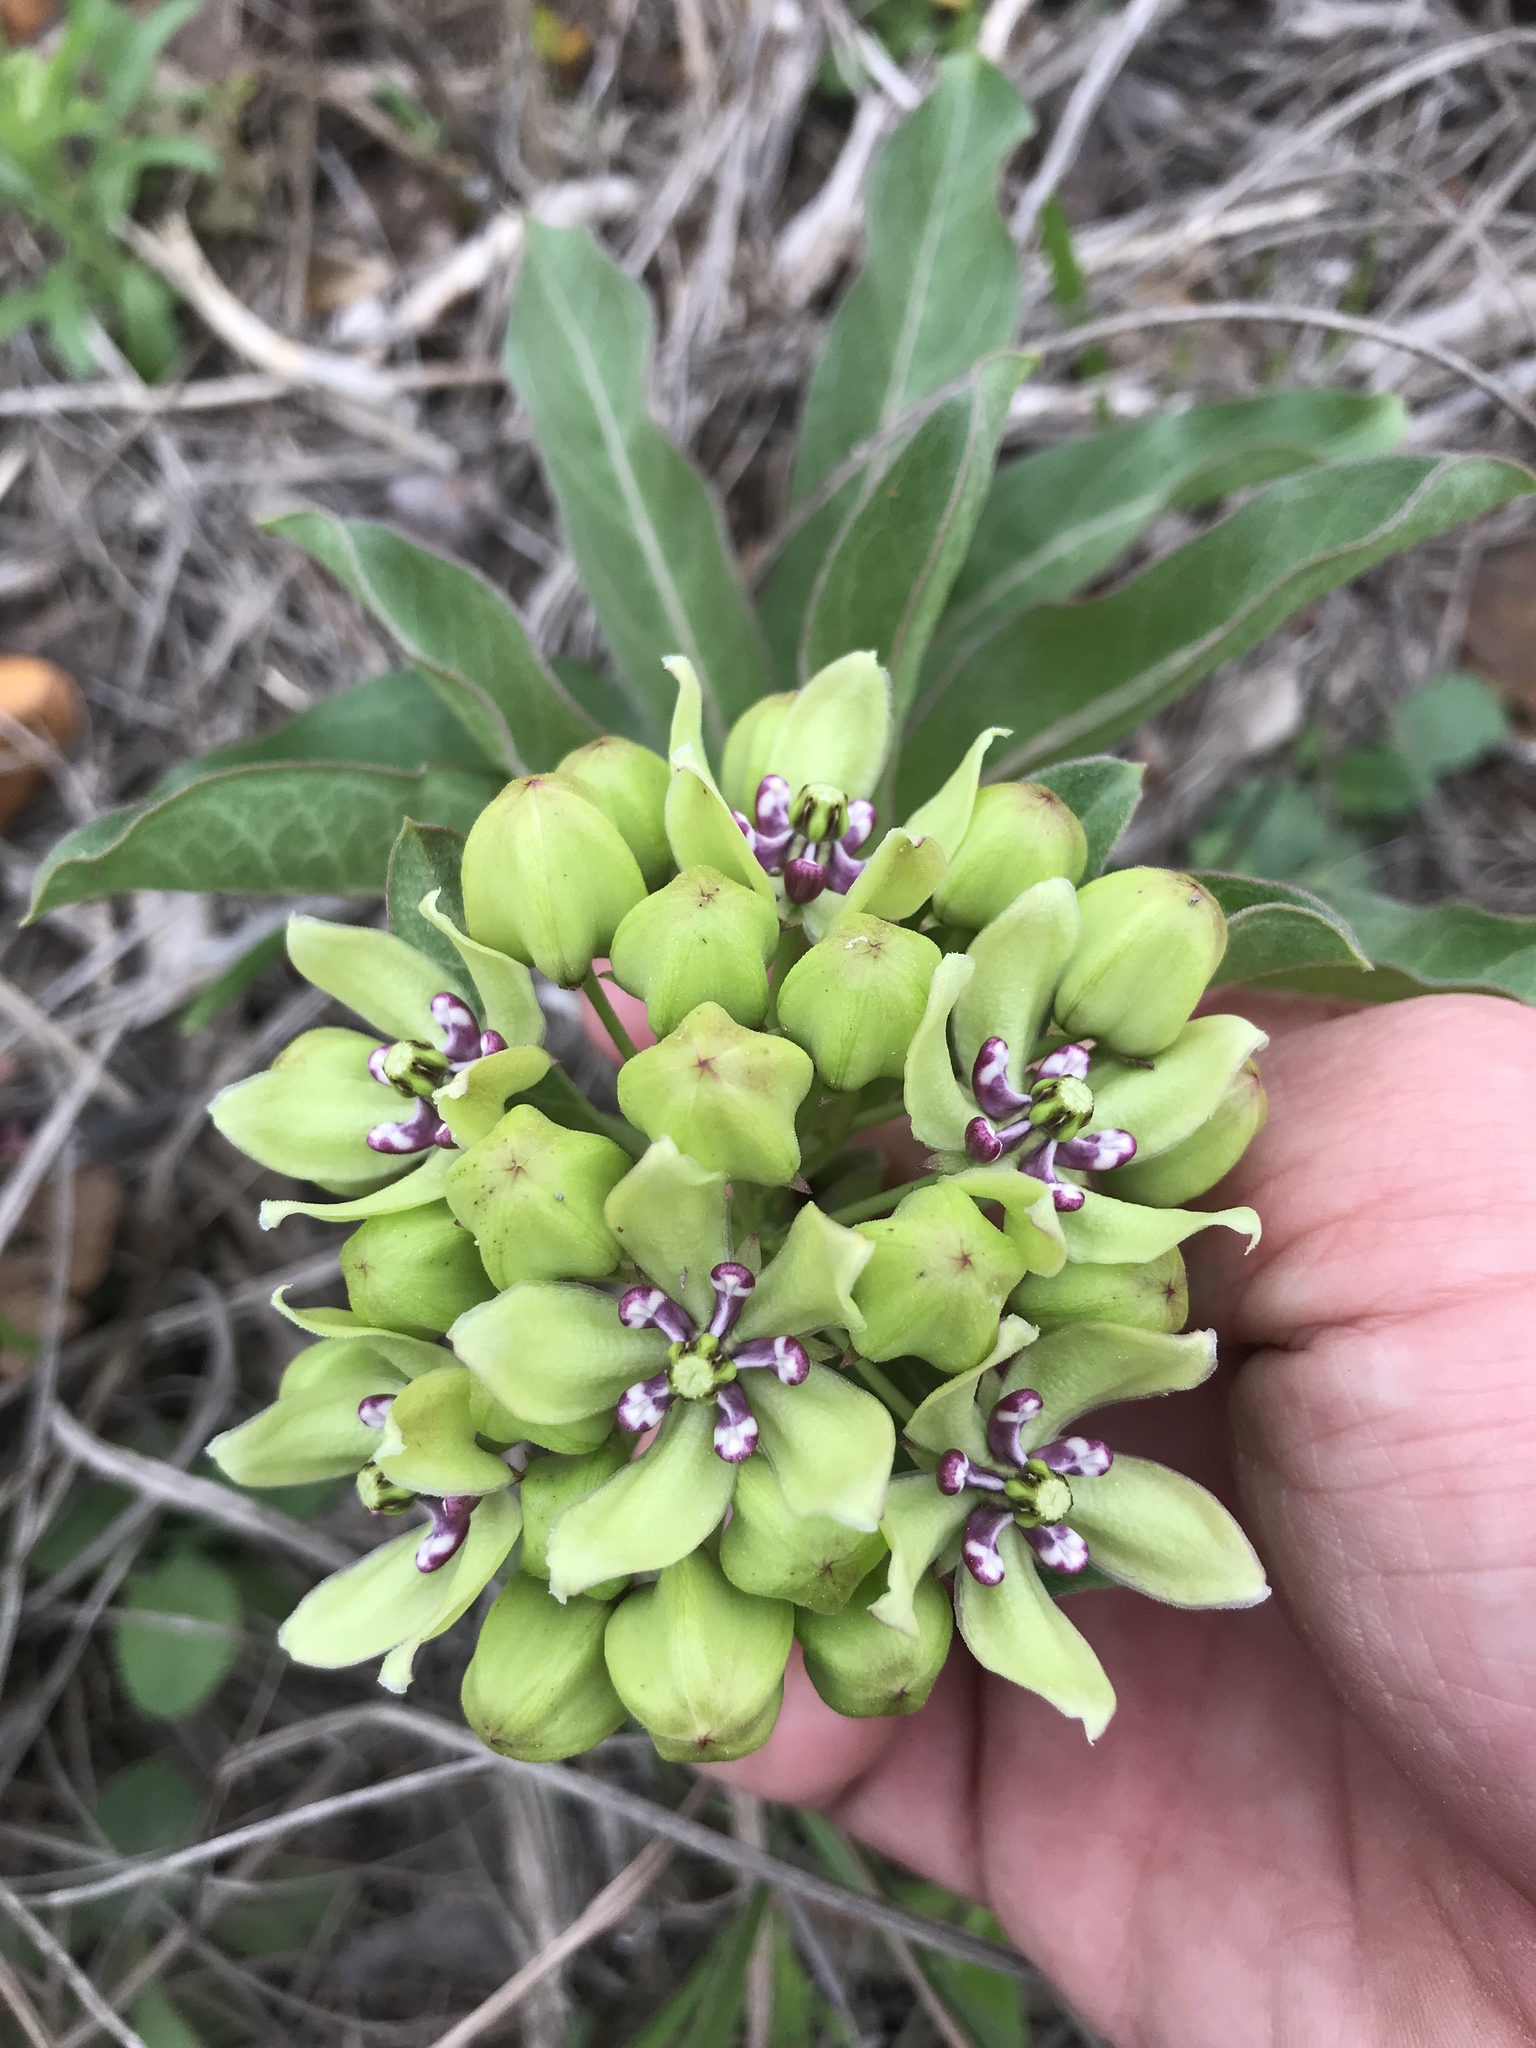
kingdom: Plantae
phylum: Tracheophyta
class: Magnoliopsida
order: Gentianales
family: Apocynaceae
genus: Asclepias
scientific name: Asclepias viridis
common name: Antelope-horns
